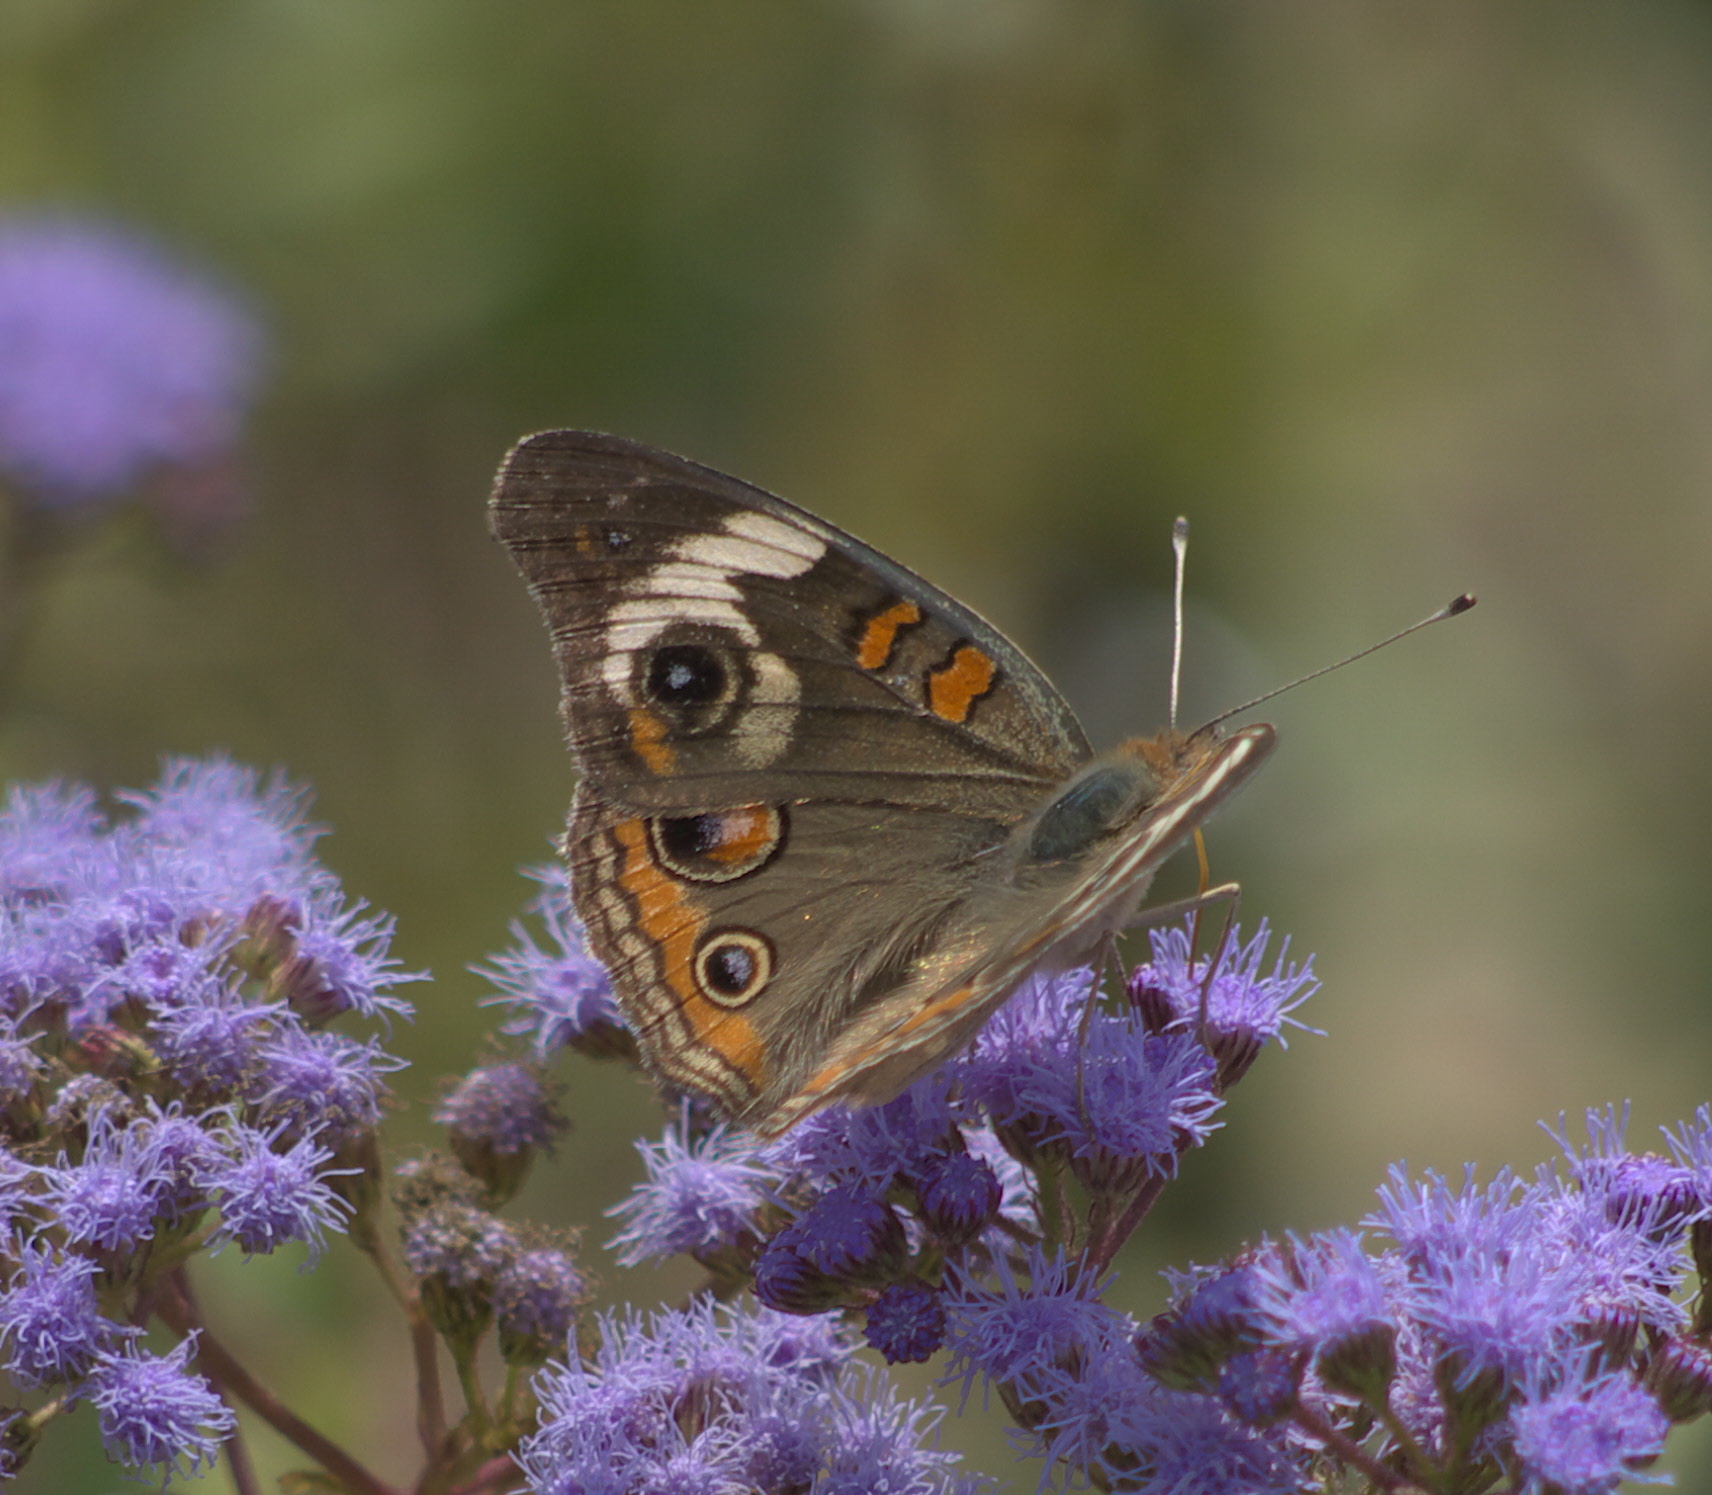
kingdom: Animalia
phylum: Arthropoda
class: Insecta
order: Lepidoptera
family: Nymphalidae
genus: Junonia
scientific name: Junonia coenia
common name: Common buckeye
